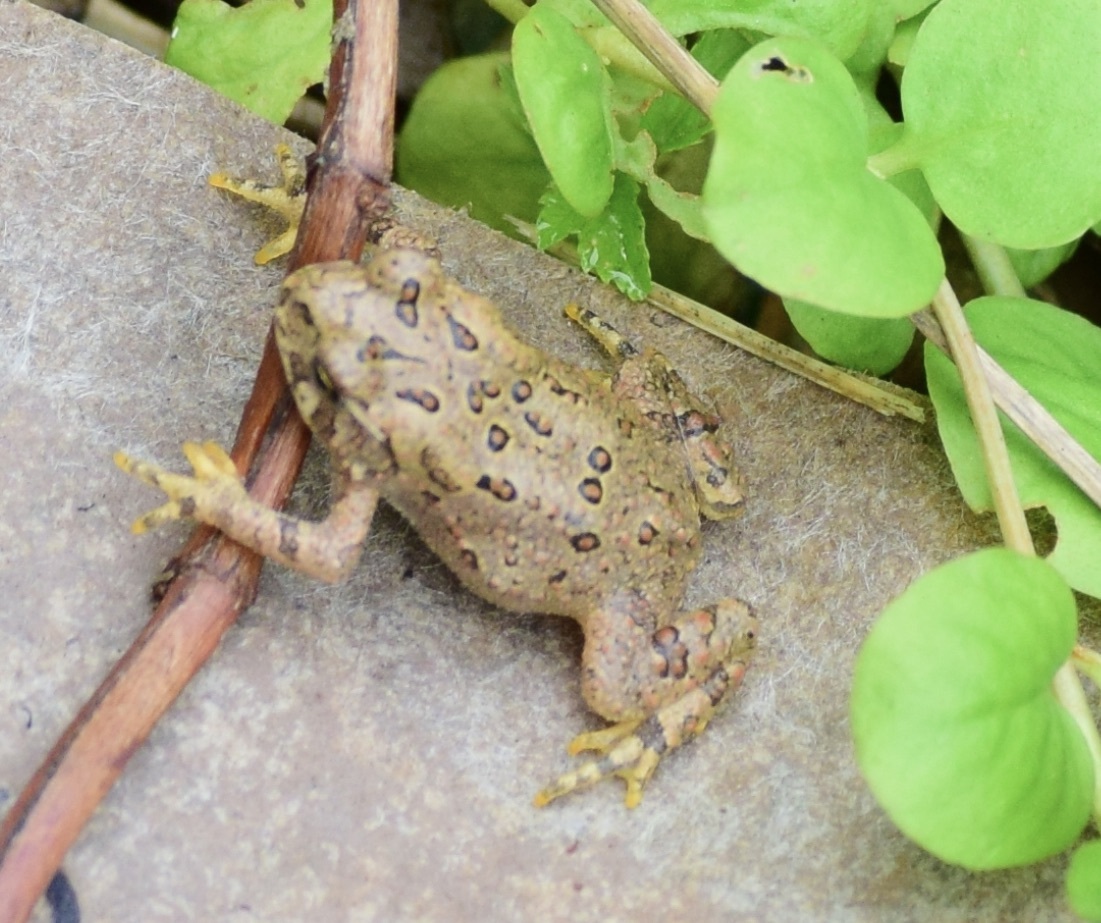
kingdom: Animalia
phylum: Chordata
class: Amphibia
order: Anura
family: Bufonidae
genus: Anaxyrus
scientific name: Anaxyrus americanus
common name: American toad
